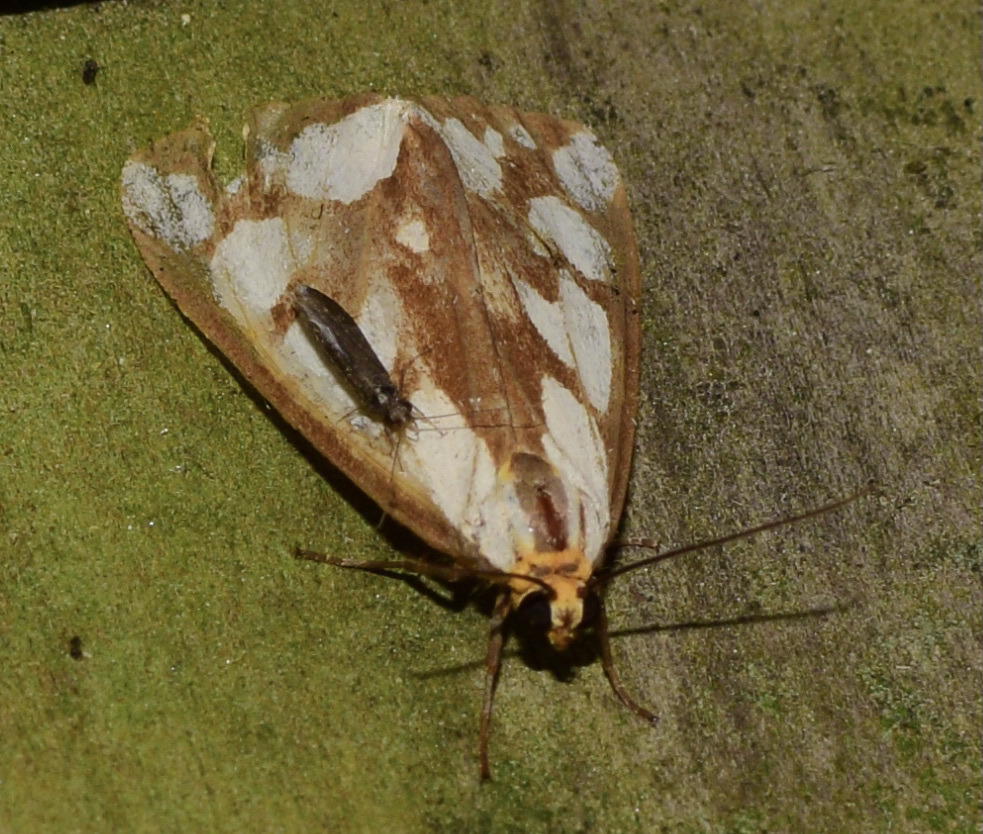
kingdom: Animalia
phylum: Arthropoda
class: Insecta
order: Lepidoptera
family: Erebidae
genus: Haploa
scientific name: Haploa confusa
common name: Confused haploa moth
